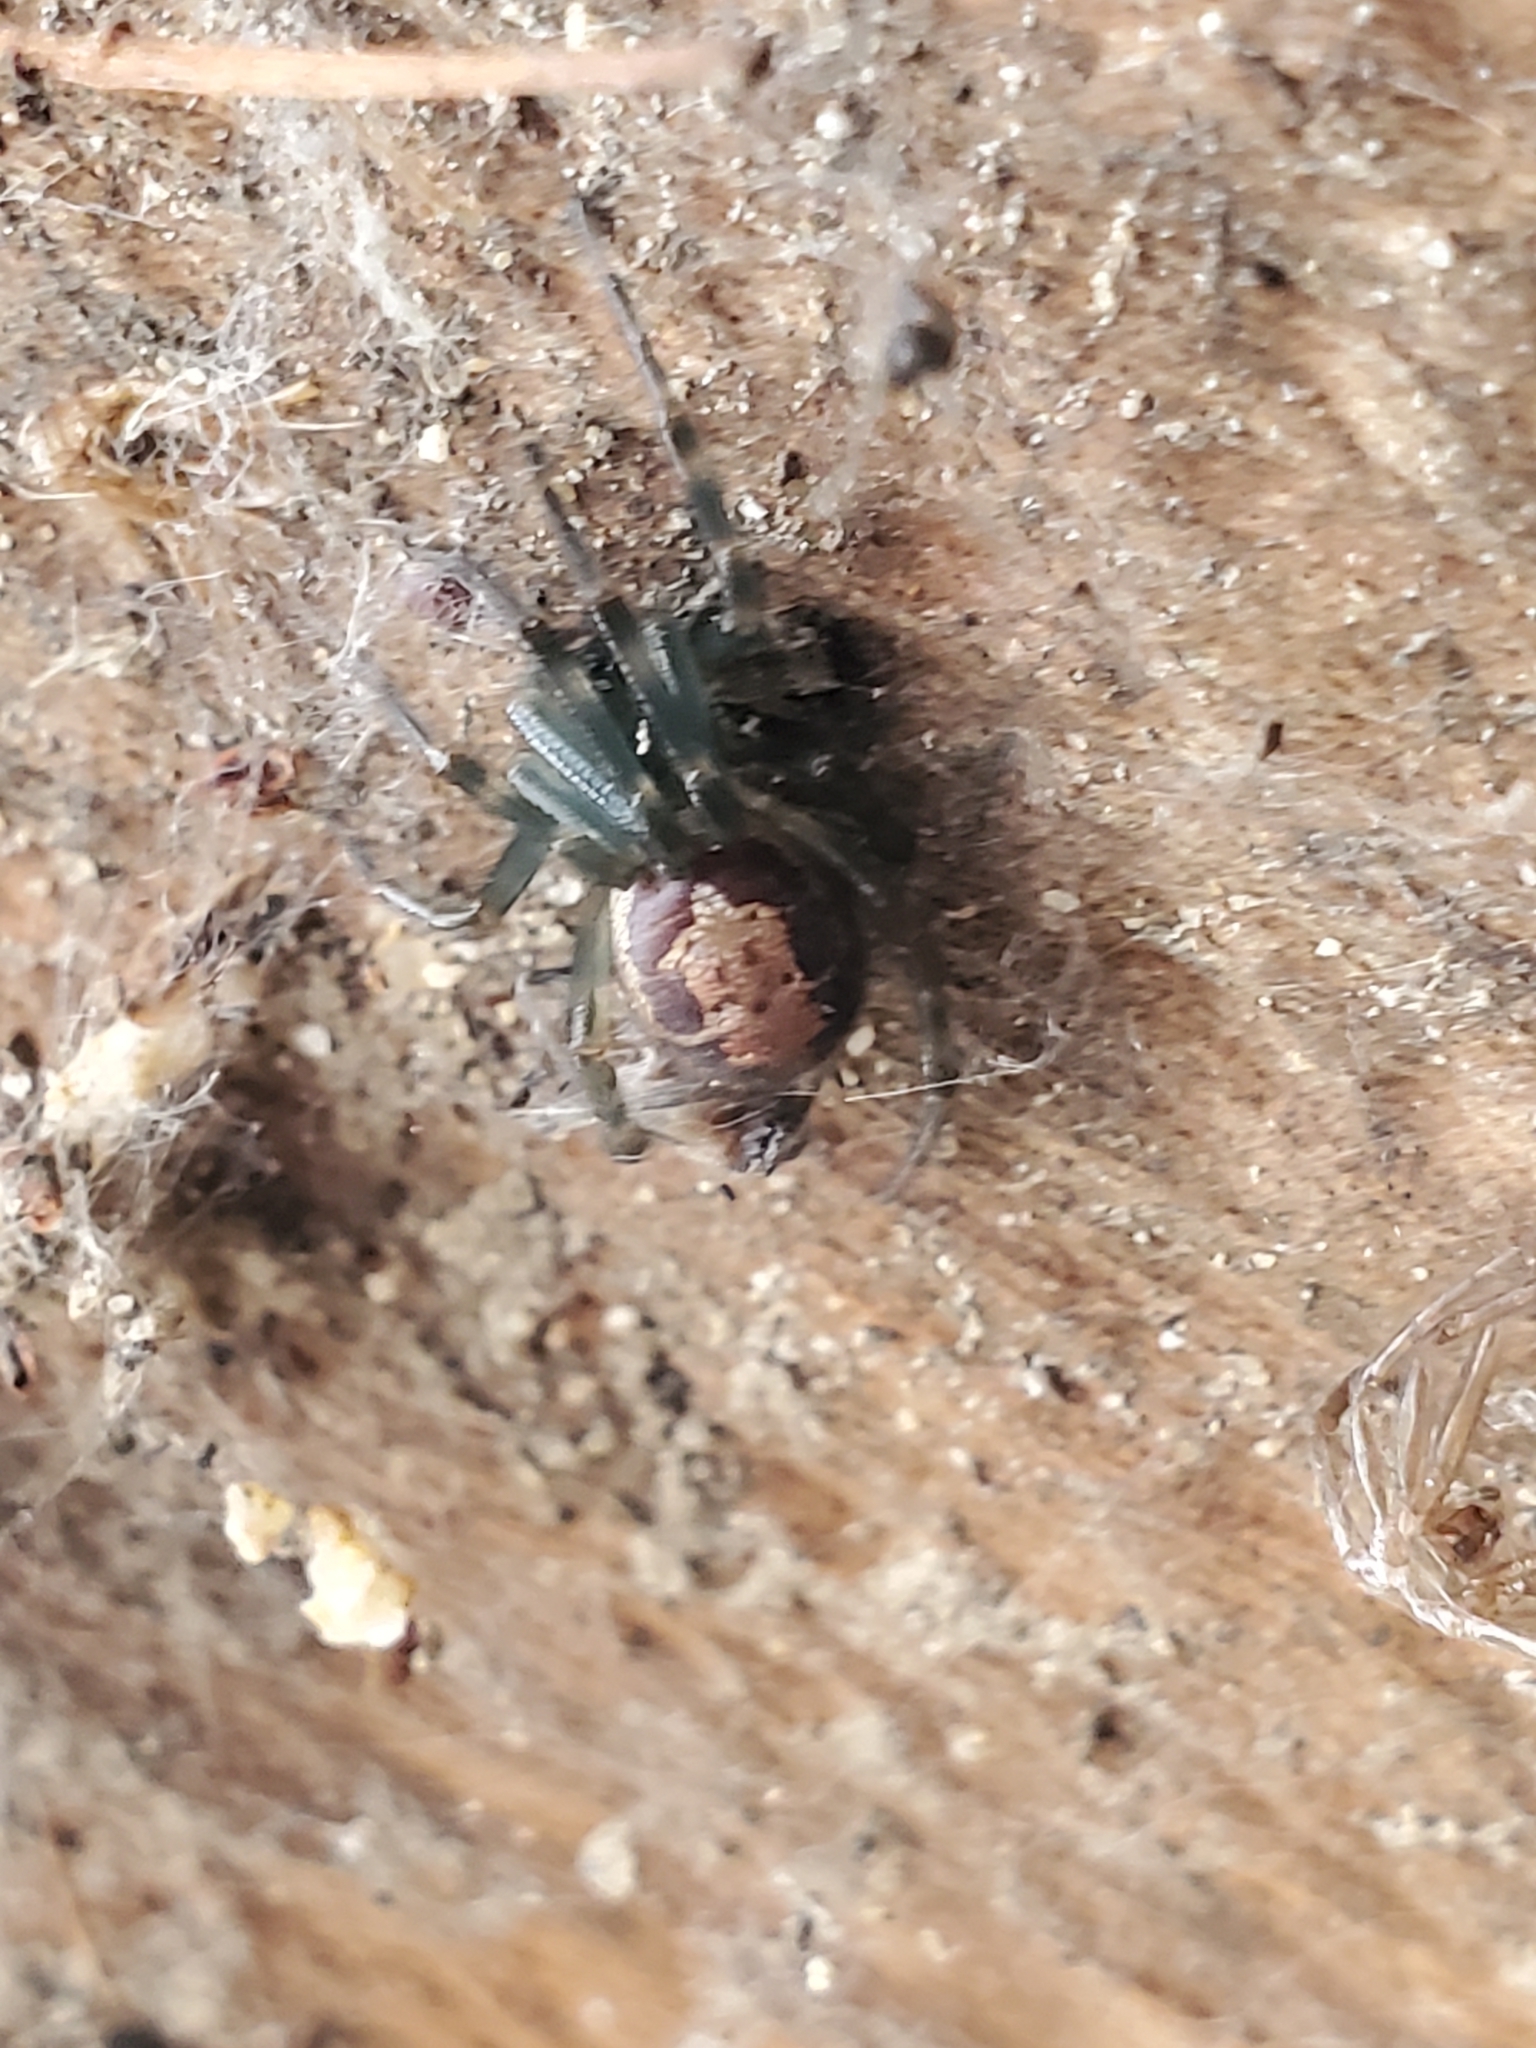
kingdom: Animalia
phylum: Arthropoda
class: Arachnida
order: Araneae
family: Theridiidae
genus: Steatoda
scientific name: Steatoda nobilis
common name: Cobweb weaver
